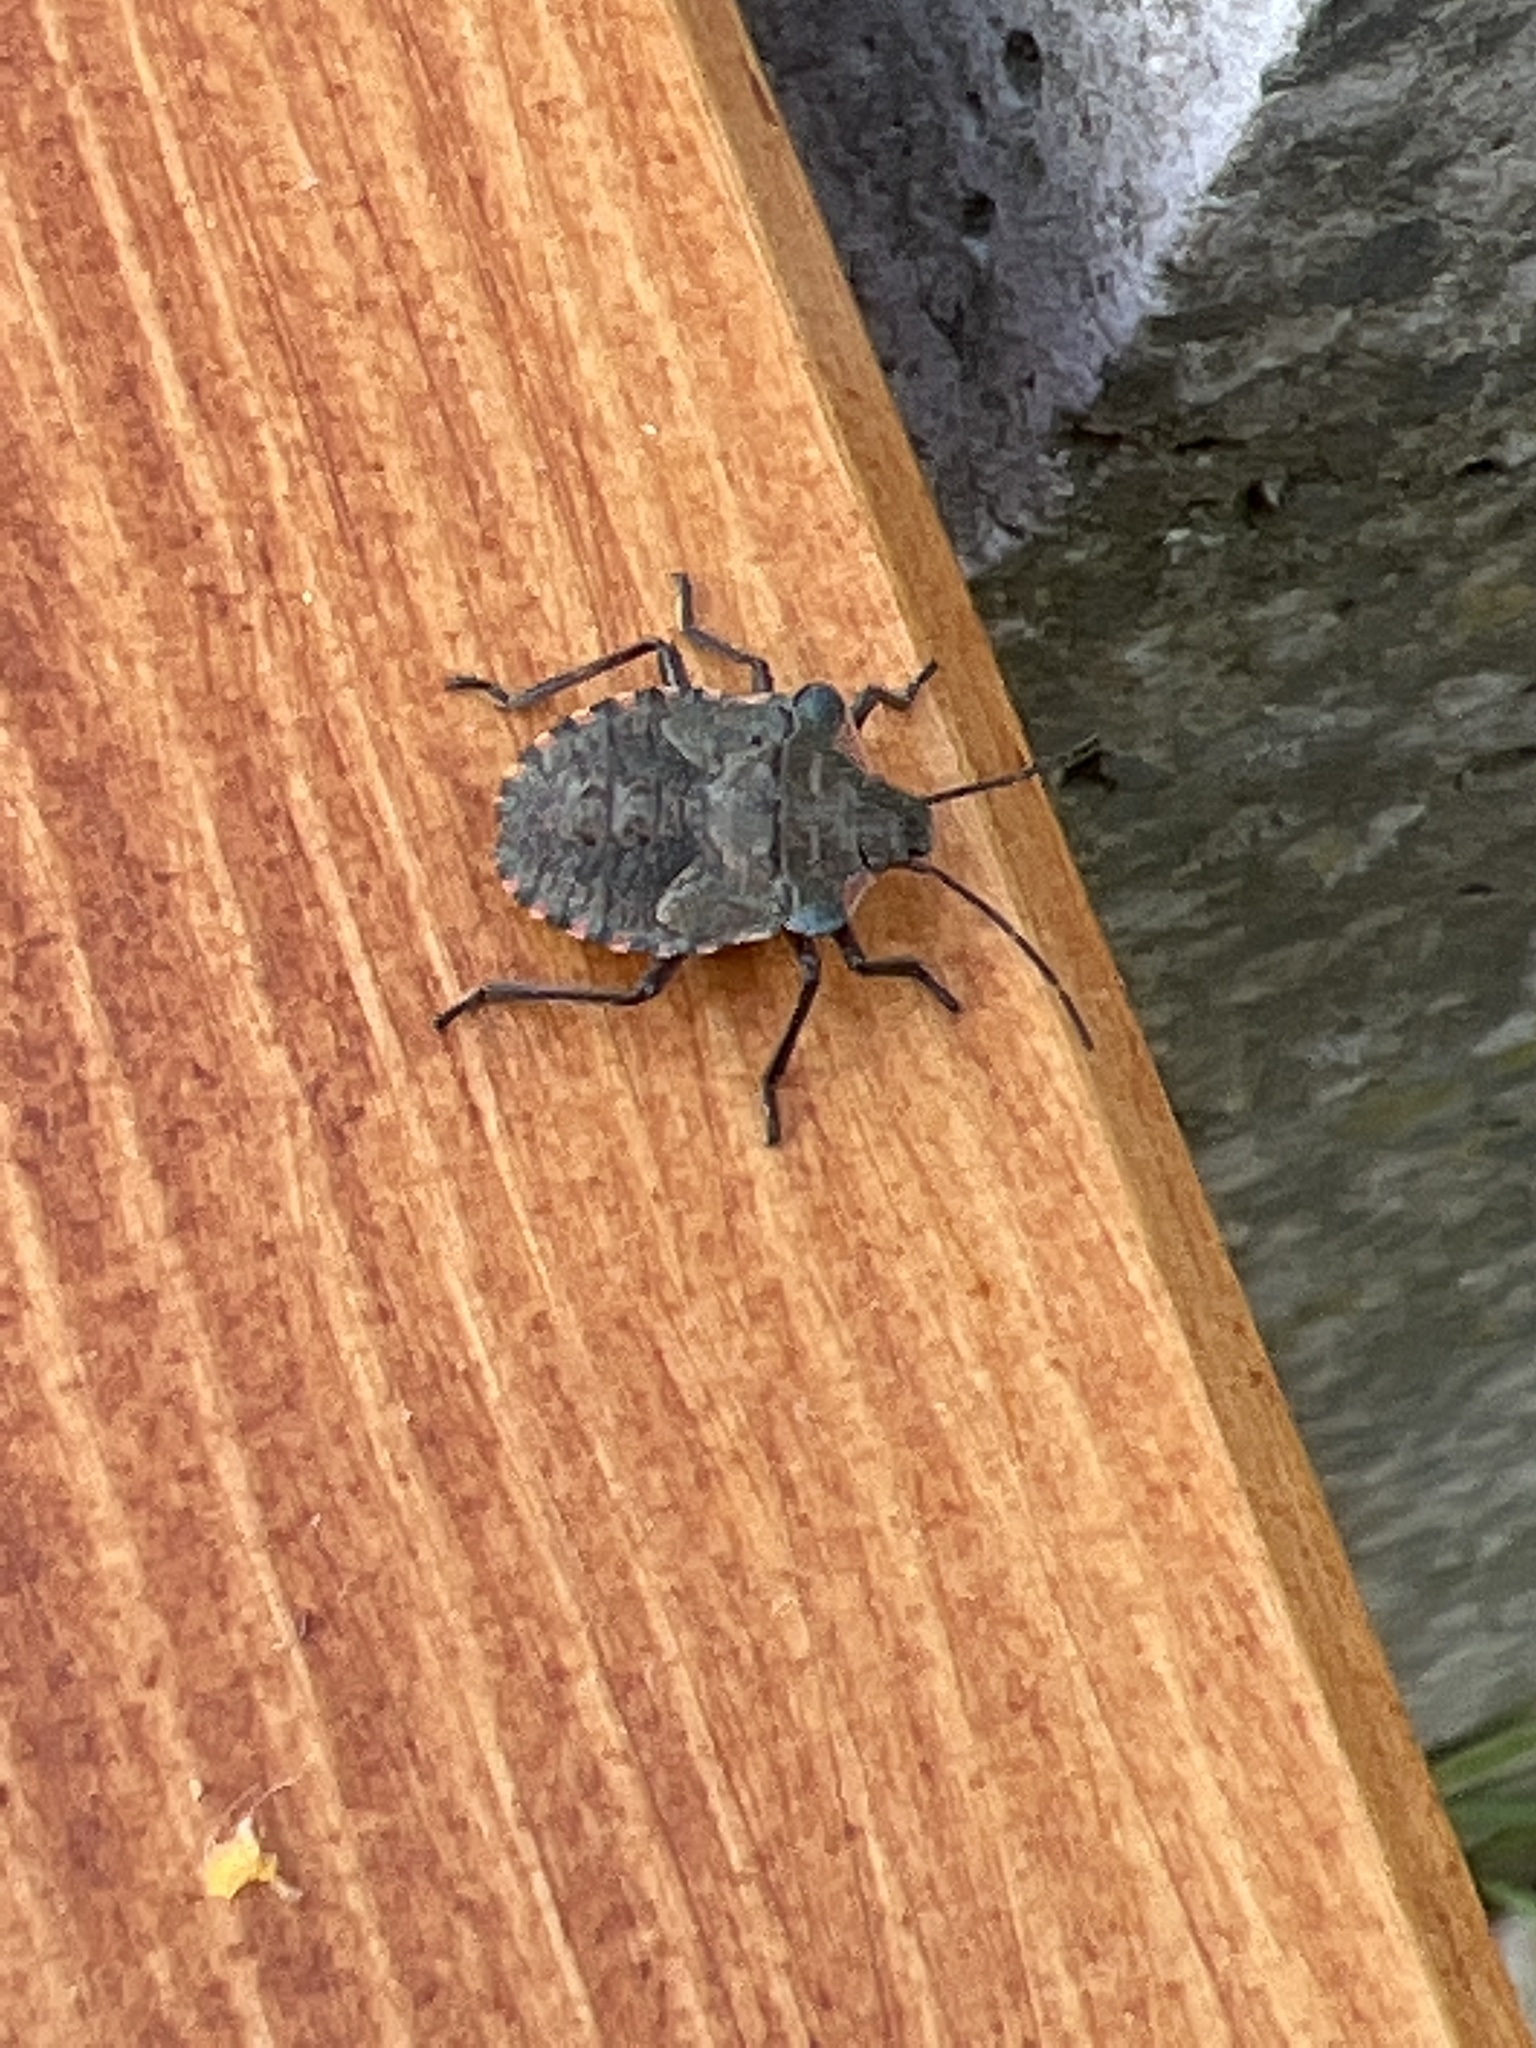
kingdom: Animalia
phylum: Arthropoda
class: Insecta
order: Hemiptera
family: Pentatomidae
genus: Pentatoma
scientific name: Pentatoma rufipes
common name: Forest bug
